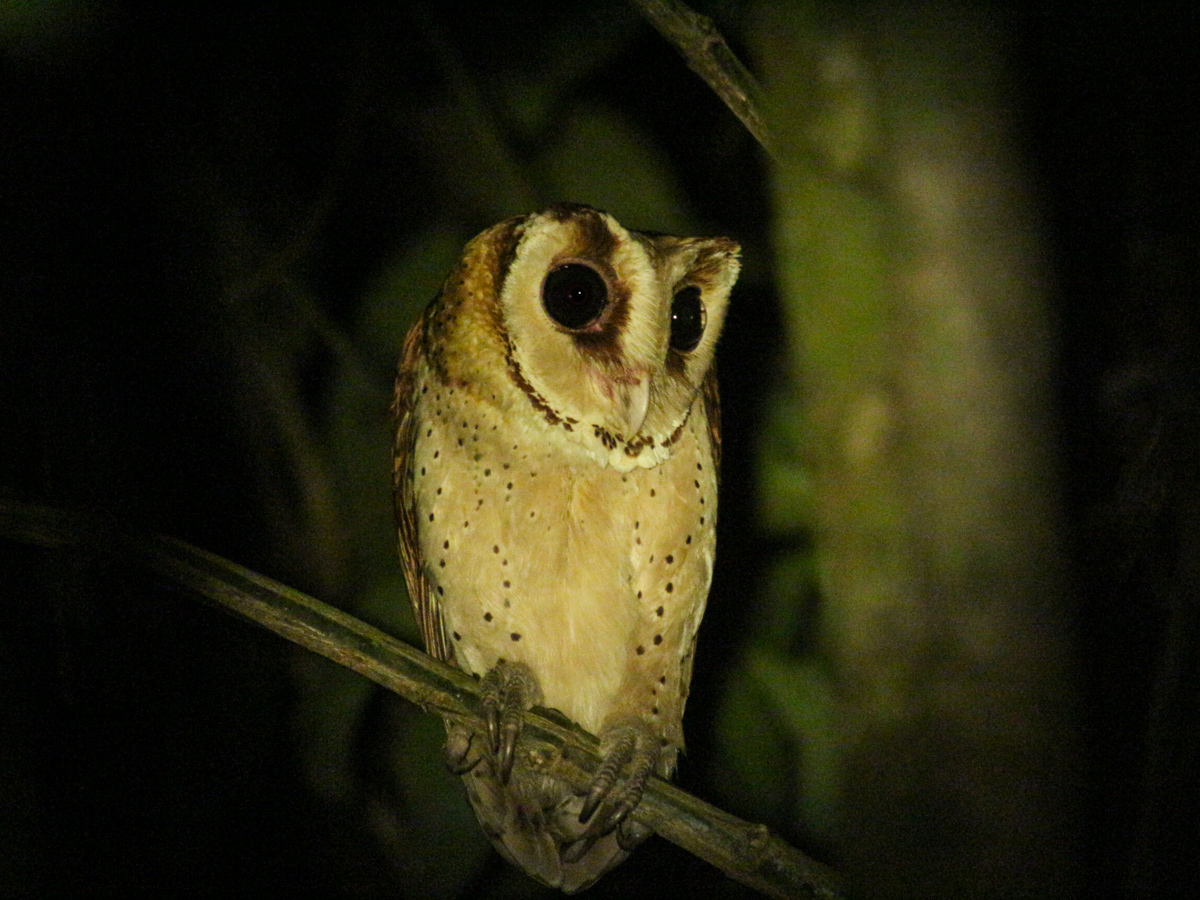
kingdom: Animalia
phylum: Chordata
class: Aves
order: Strigiformes
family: Tytonidae
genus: Phodilus
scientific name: Phodilus badius
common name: Oriental bay-owl
